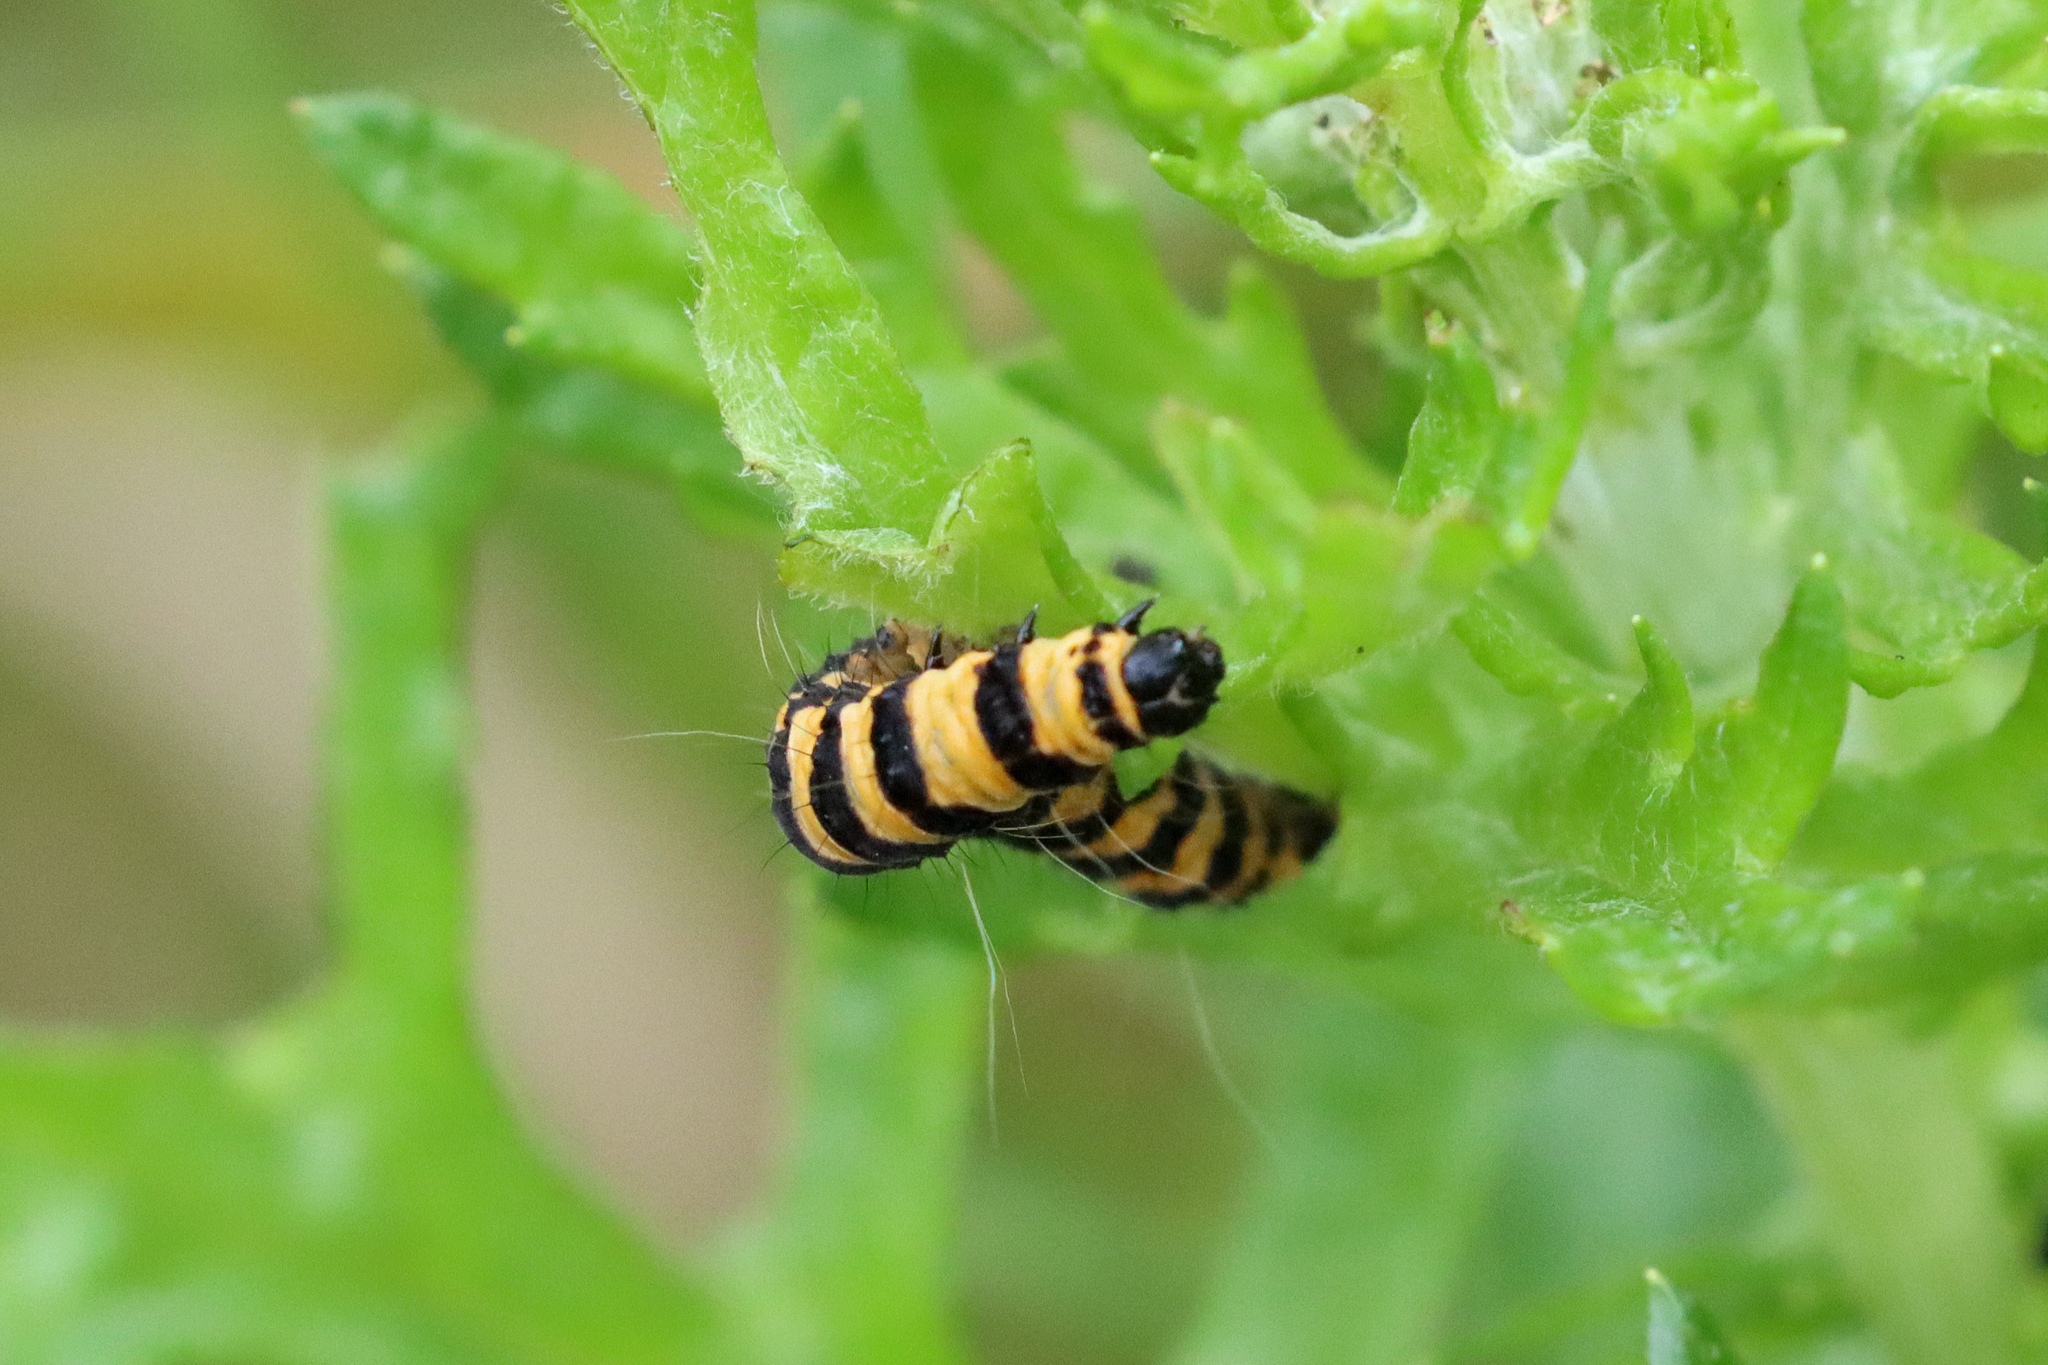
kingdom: Animalia
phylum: Arthropoda
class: Insecta
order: Lepidoptera
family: Erebidae
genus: Tyria
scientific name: Tyria jacobaeae
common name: Cinnabar
